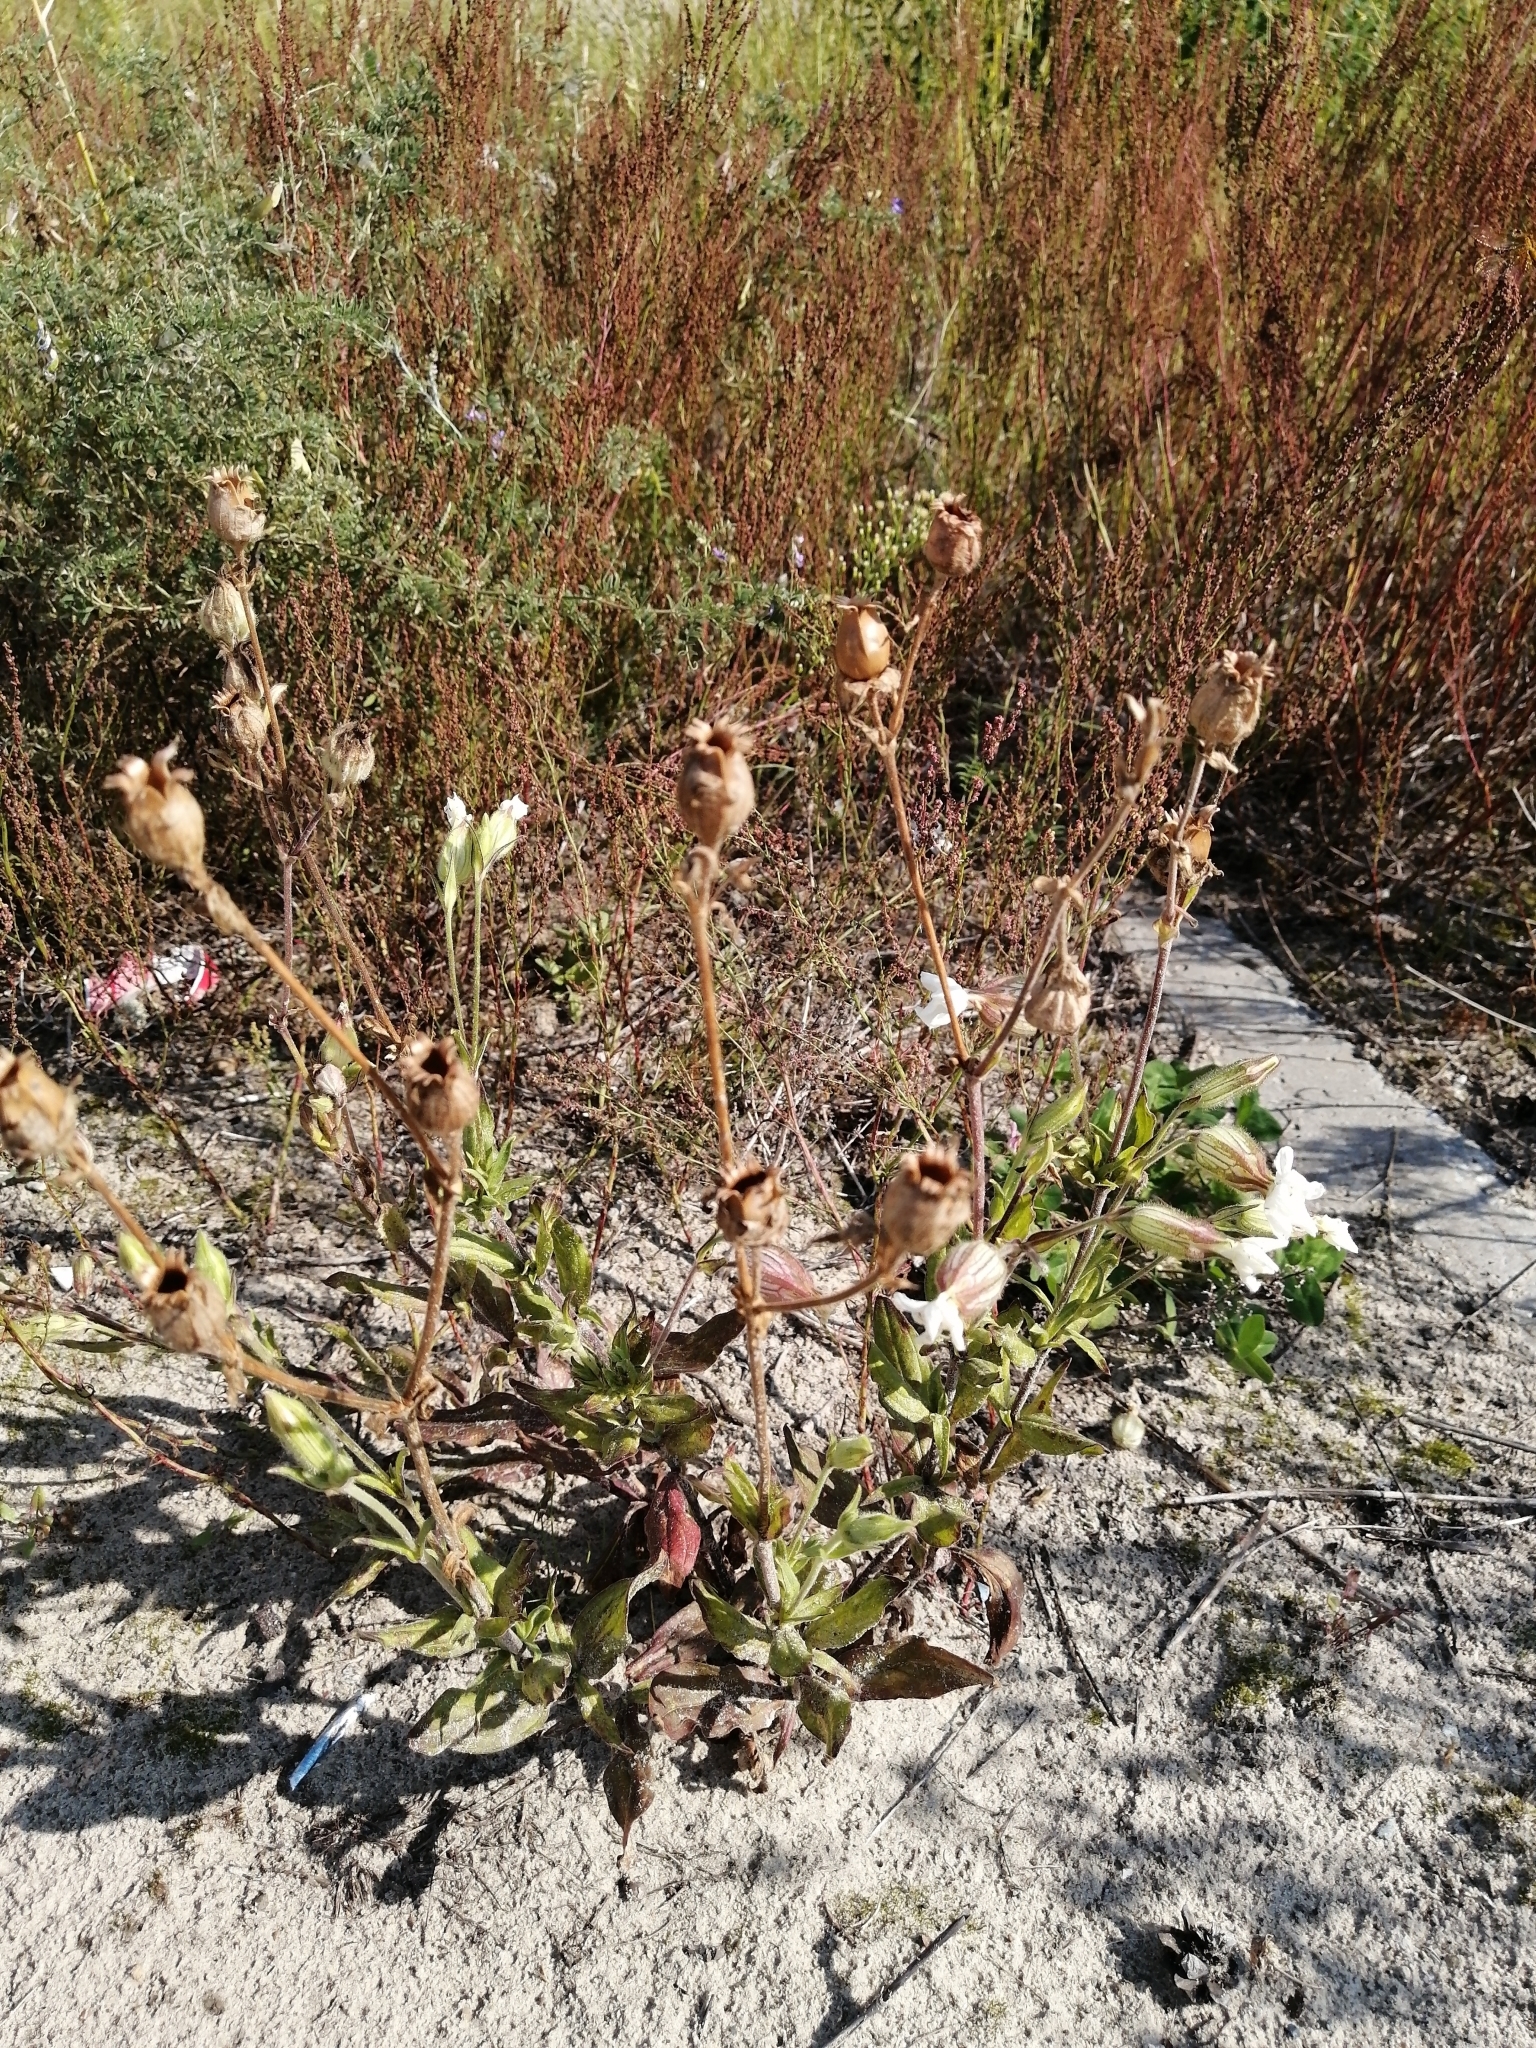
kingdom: Plantae
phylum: Tracheophyta
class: Magnoliopsida
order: Caryophyllales
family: Caryophyllaceae
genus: Silene
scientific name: Silene latifolia
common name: White campion
